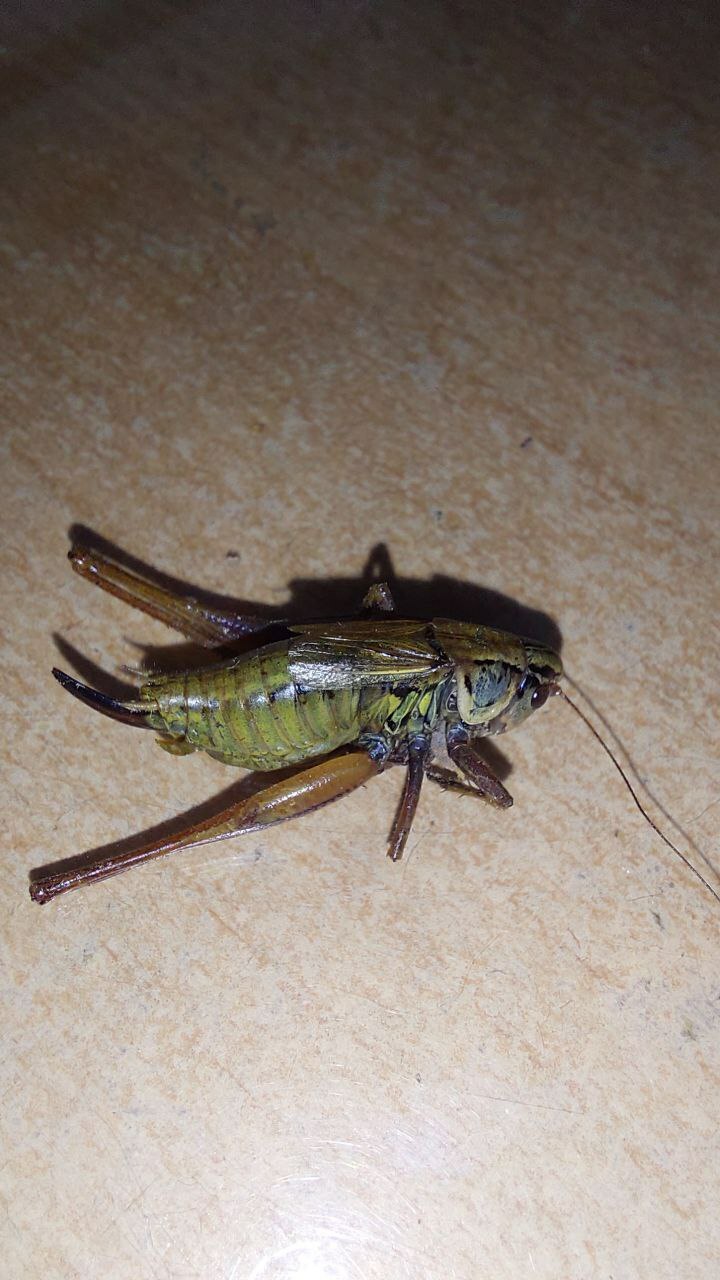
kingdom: Animalia
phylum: Arthropoda
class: Insecta
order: Orthoptera
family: Tettigoniidae
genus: Roeseliana
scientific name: Roeseliana roeselii
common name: Roesel's bush cricket
